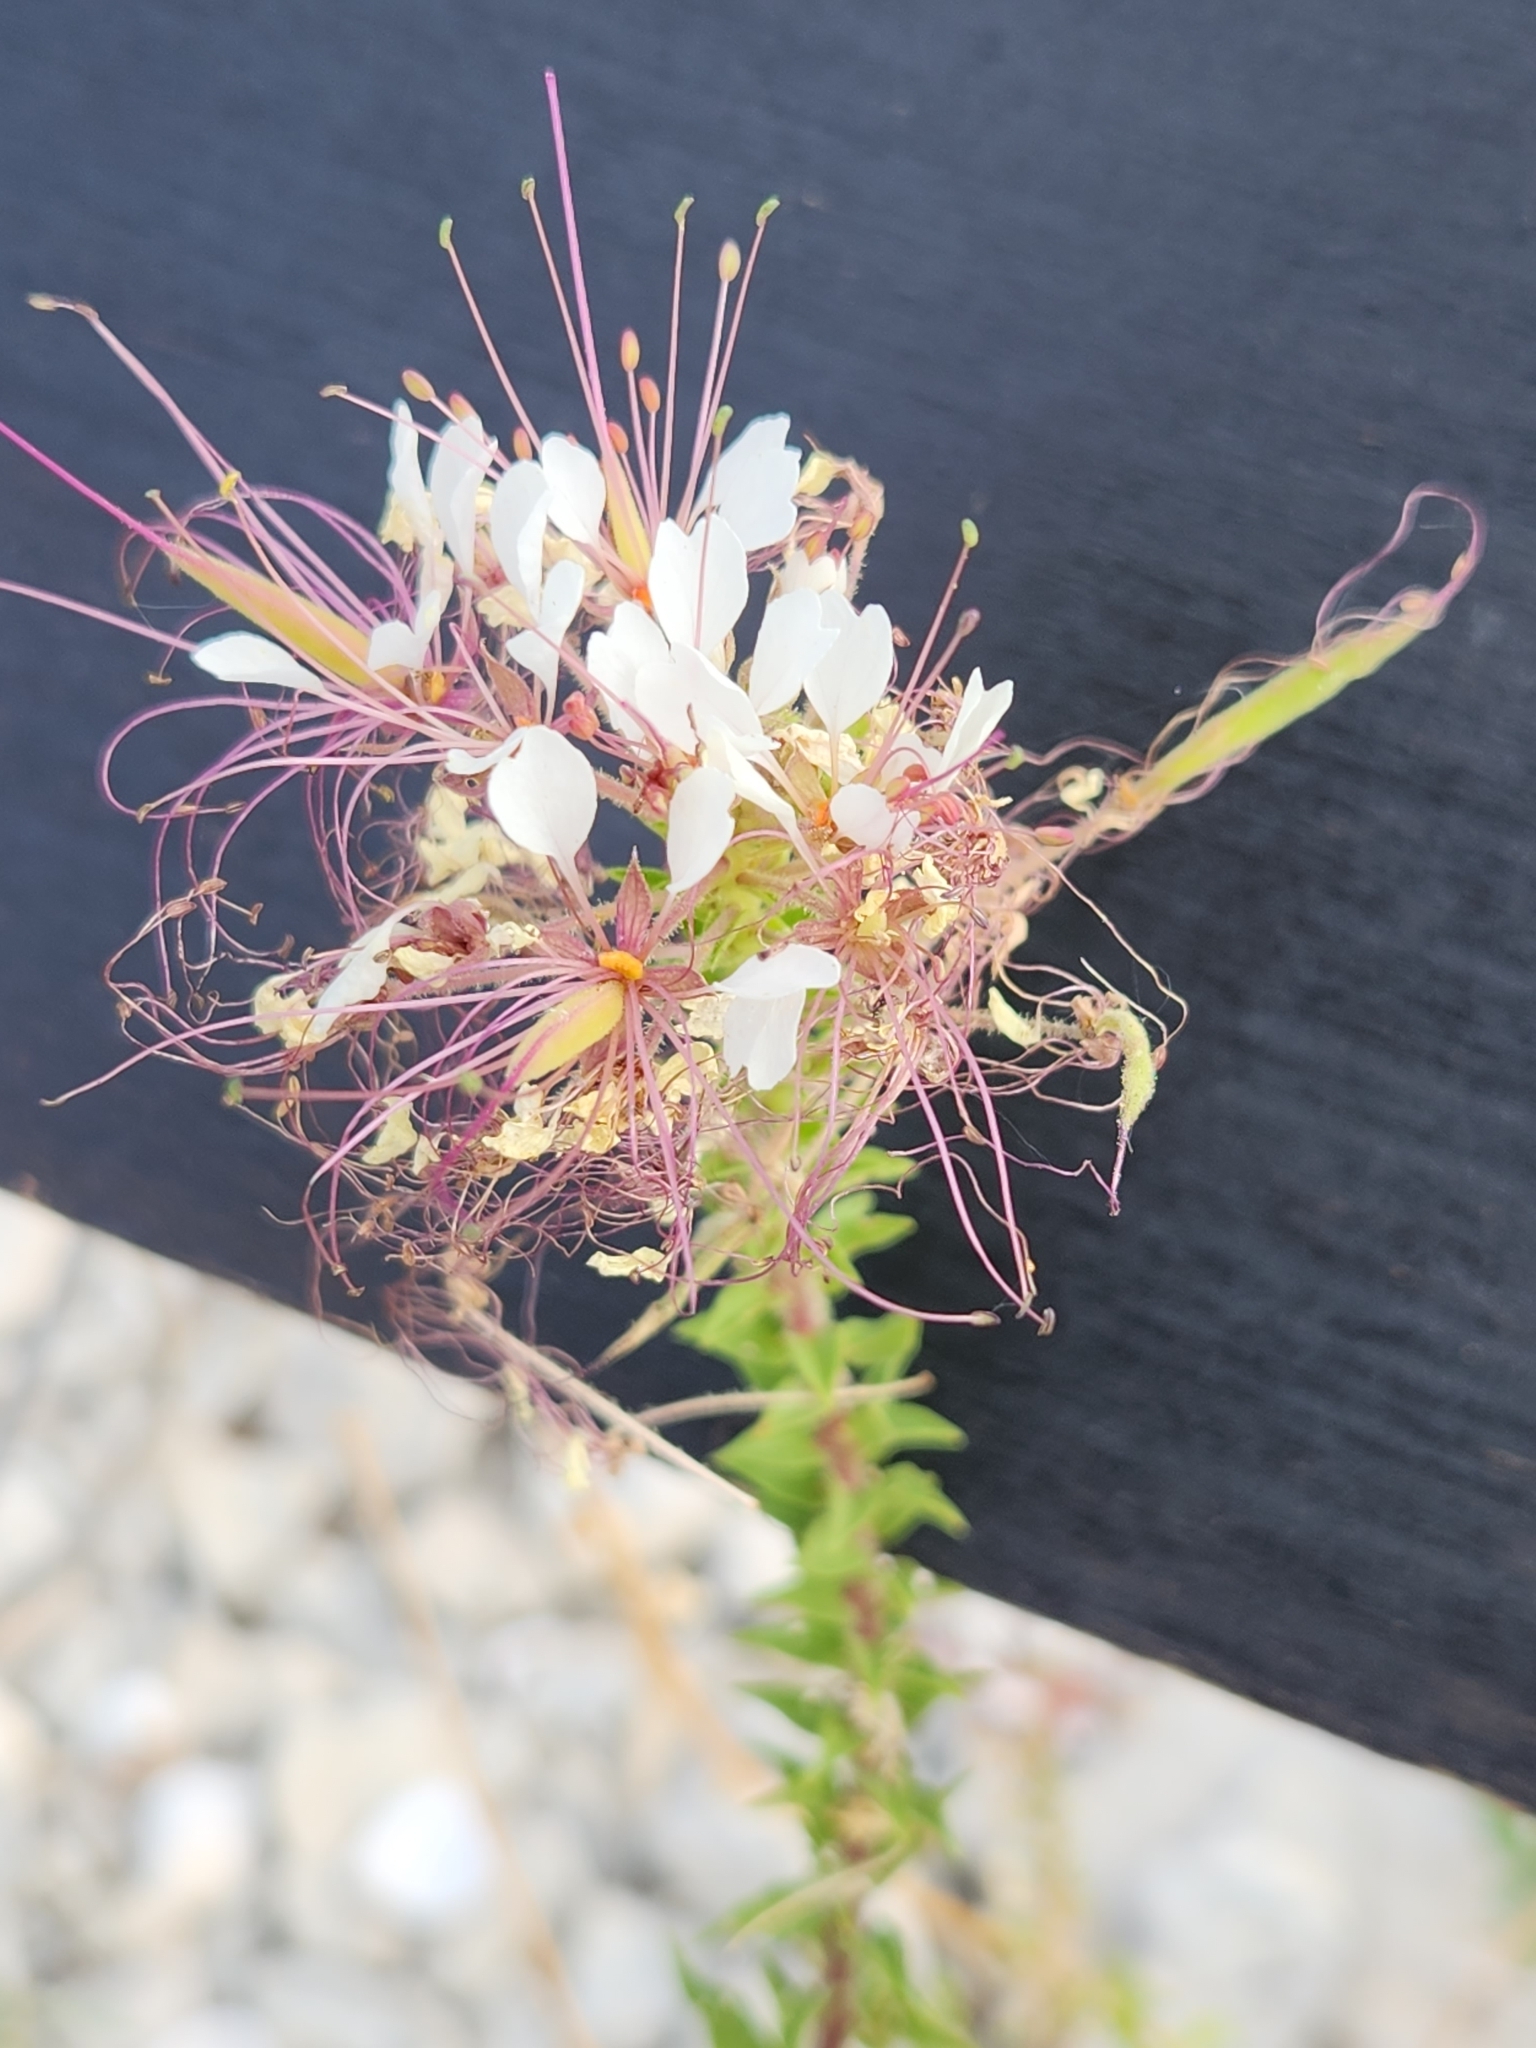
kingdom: Plantae
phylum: Tracheophyta
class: Magnoliopsida
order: Brassicales
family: Cleomaceae
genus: Polanisia
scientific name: Polanisia dodecandra
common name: Clammyweed
